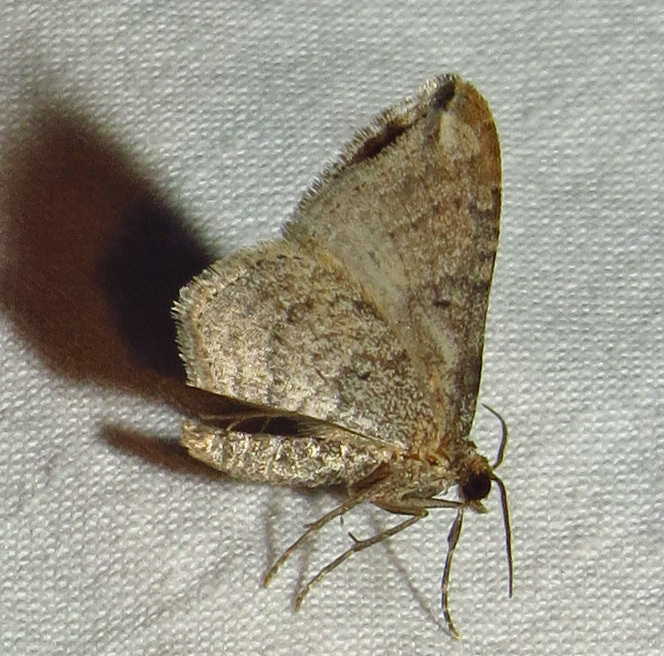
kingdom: Animalia
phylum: Arthropoda
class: Insecta
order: Lepidoptera
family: Geometridae
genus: Orthonama
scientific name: Orthonama obstipata
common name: The gem
